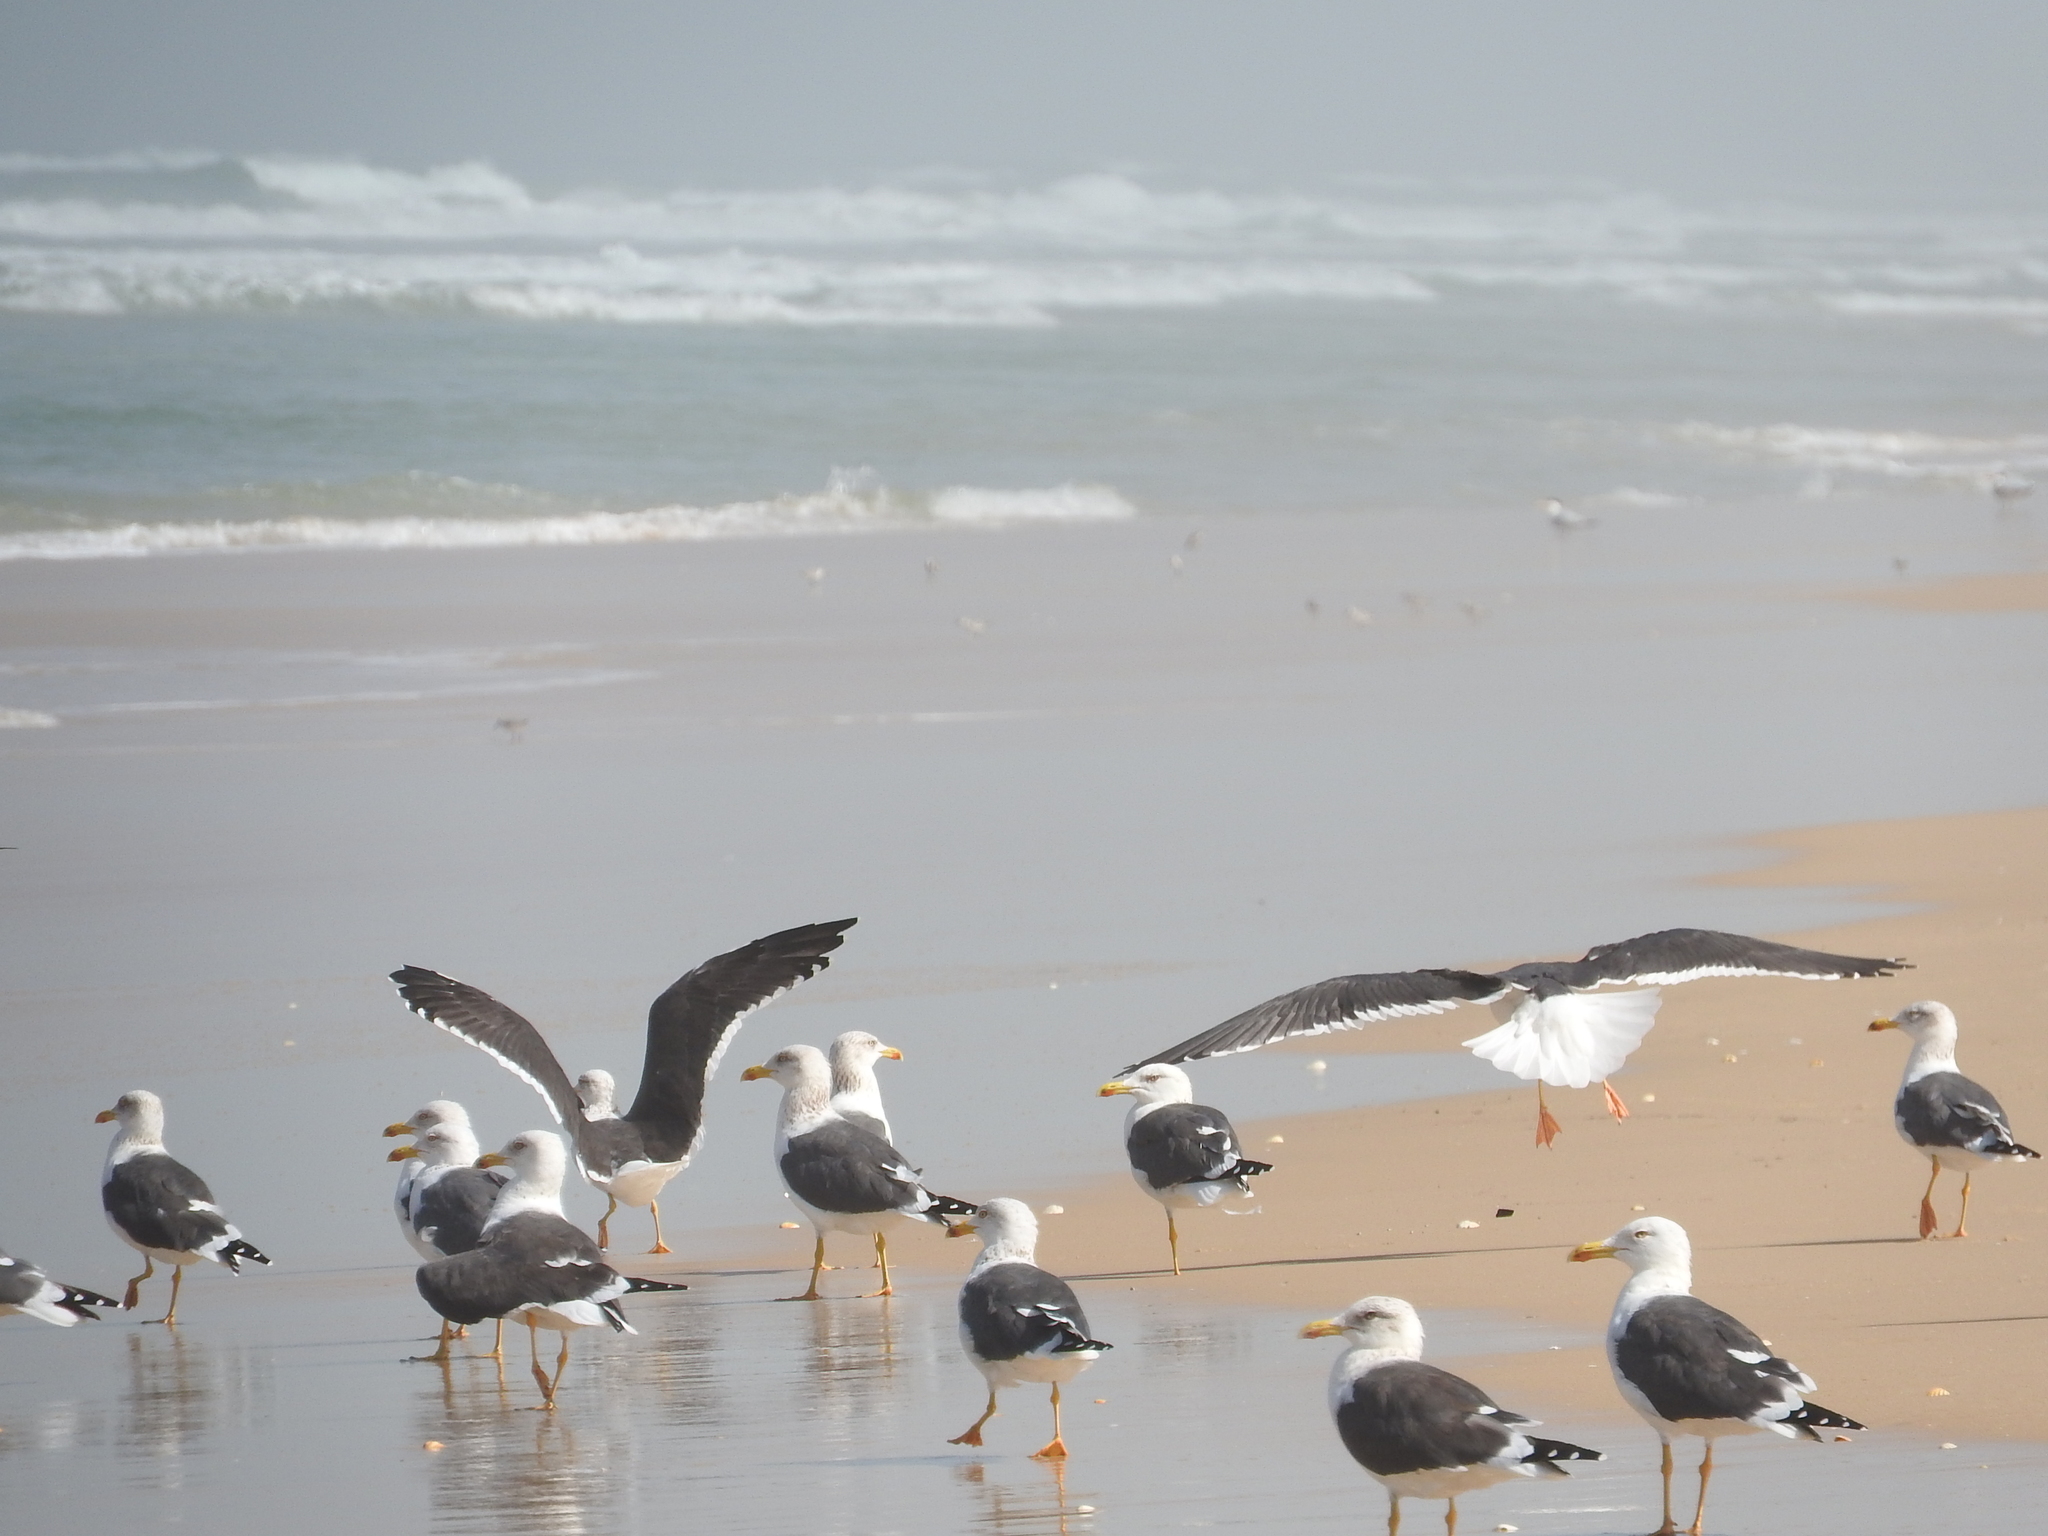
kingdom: Animalia
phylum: Chordata
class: Aves
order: Charadriiformes
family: Laridae
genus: Larus
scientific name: Larus fuscus
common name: Lesser black-backed gull
